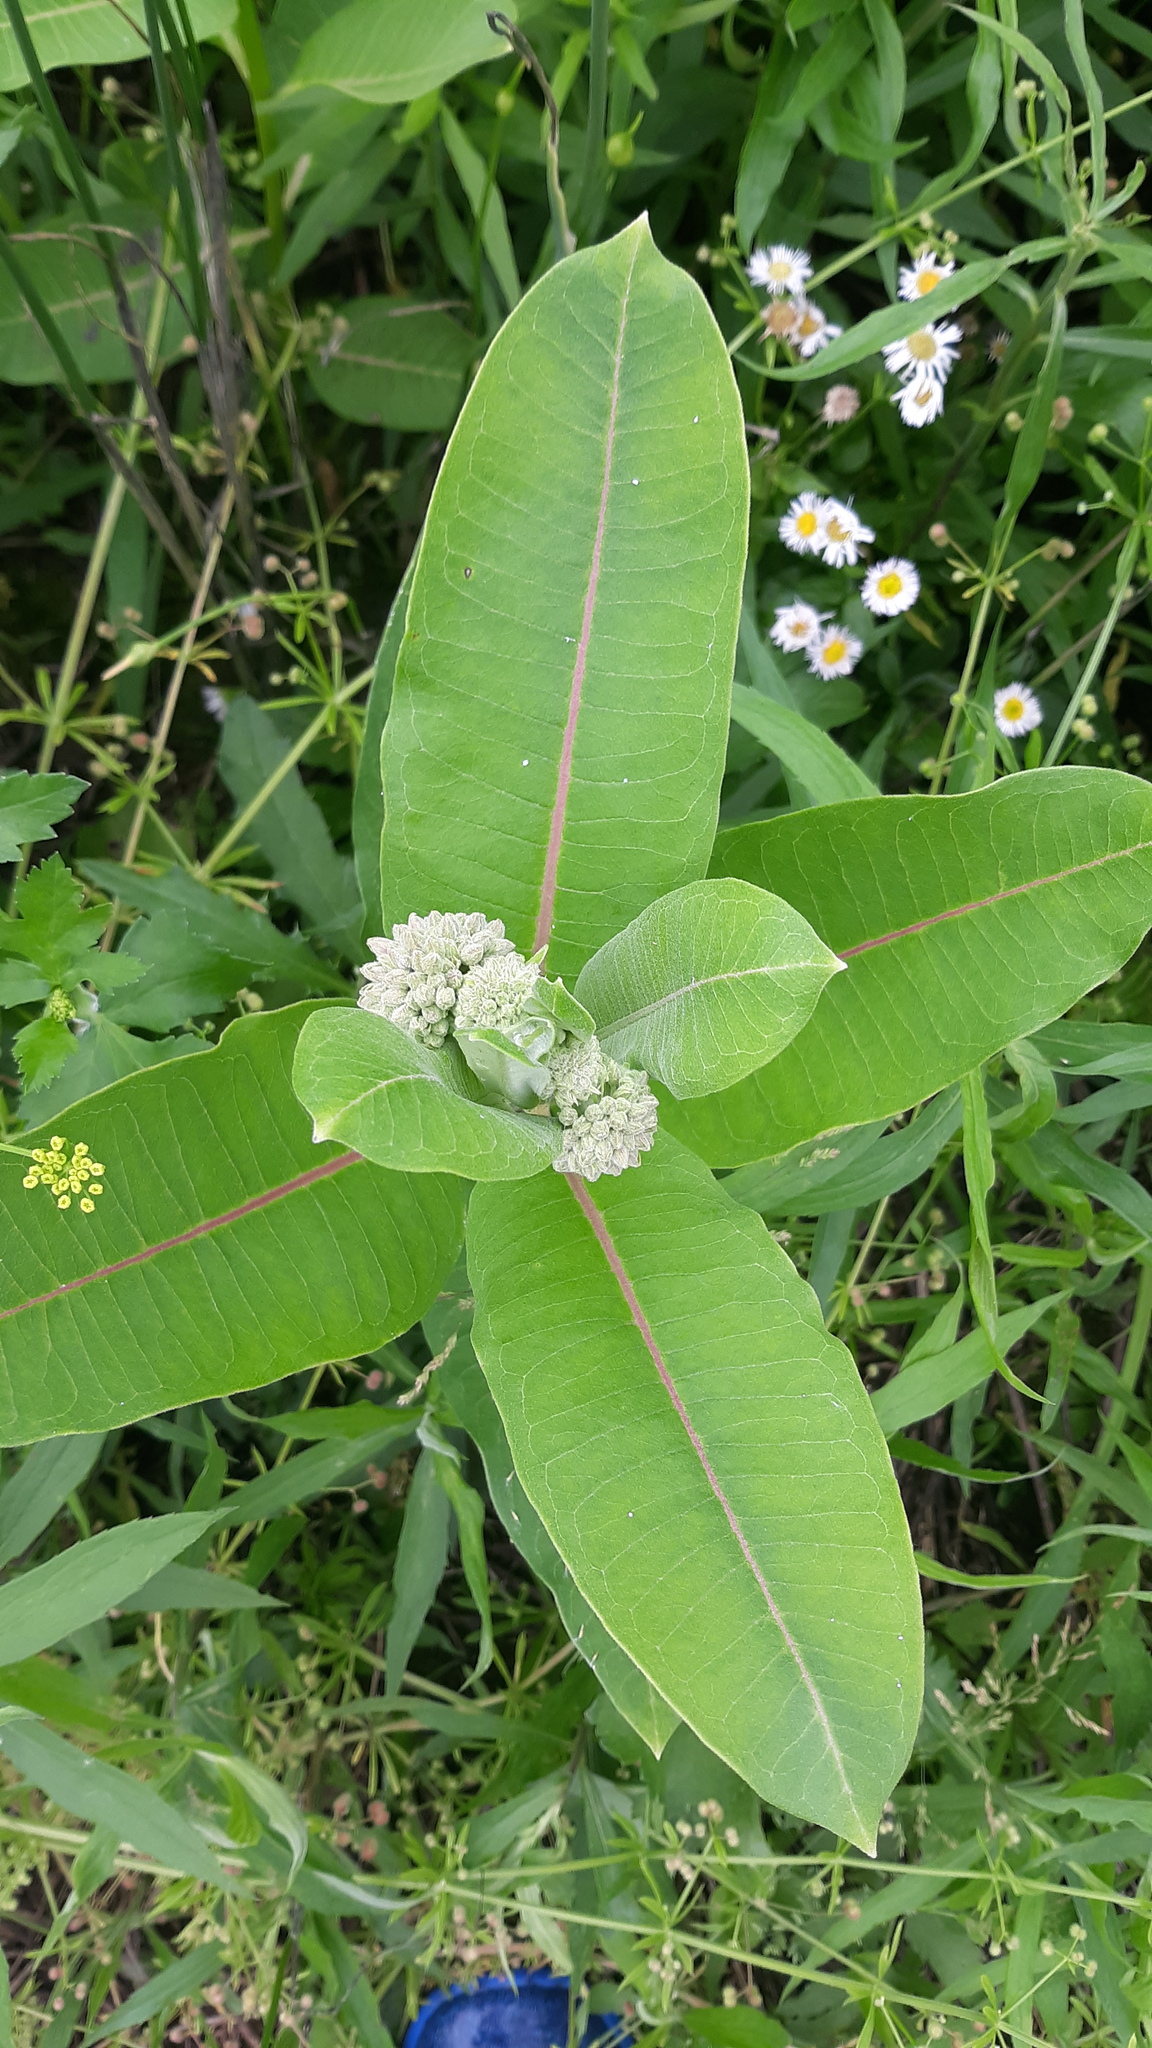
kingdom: Plantae
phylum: Tracheophyta
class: Magnoliopsida
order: Gentianales
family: Apocynaceae
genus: Asclepias
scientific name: Asclepias syriaca
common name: Common milkweed
